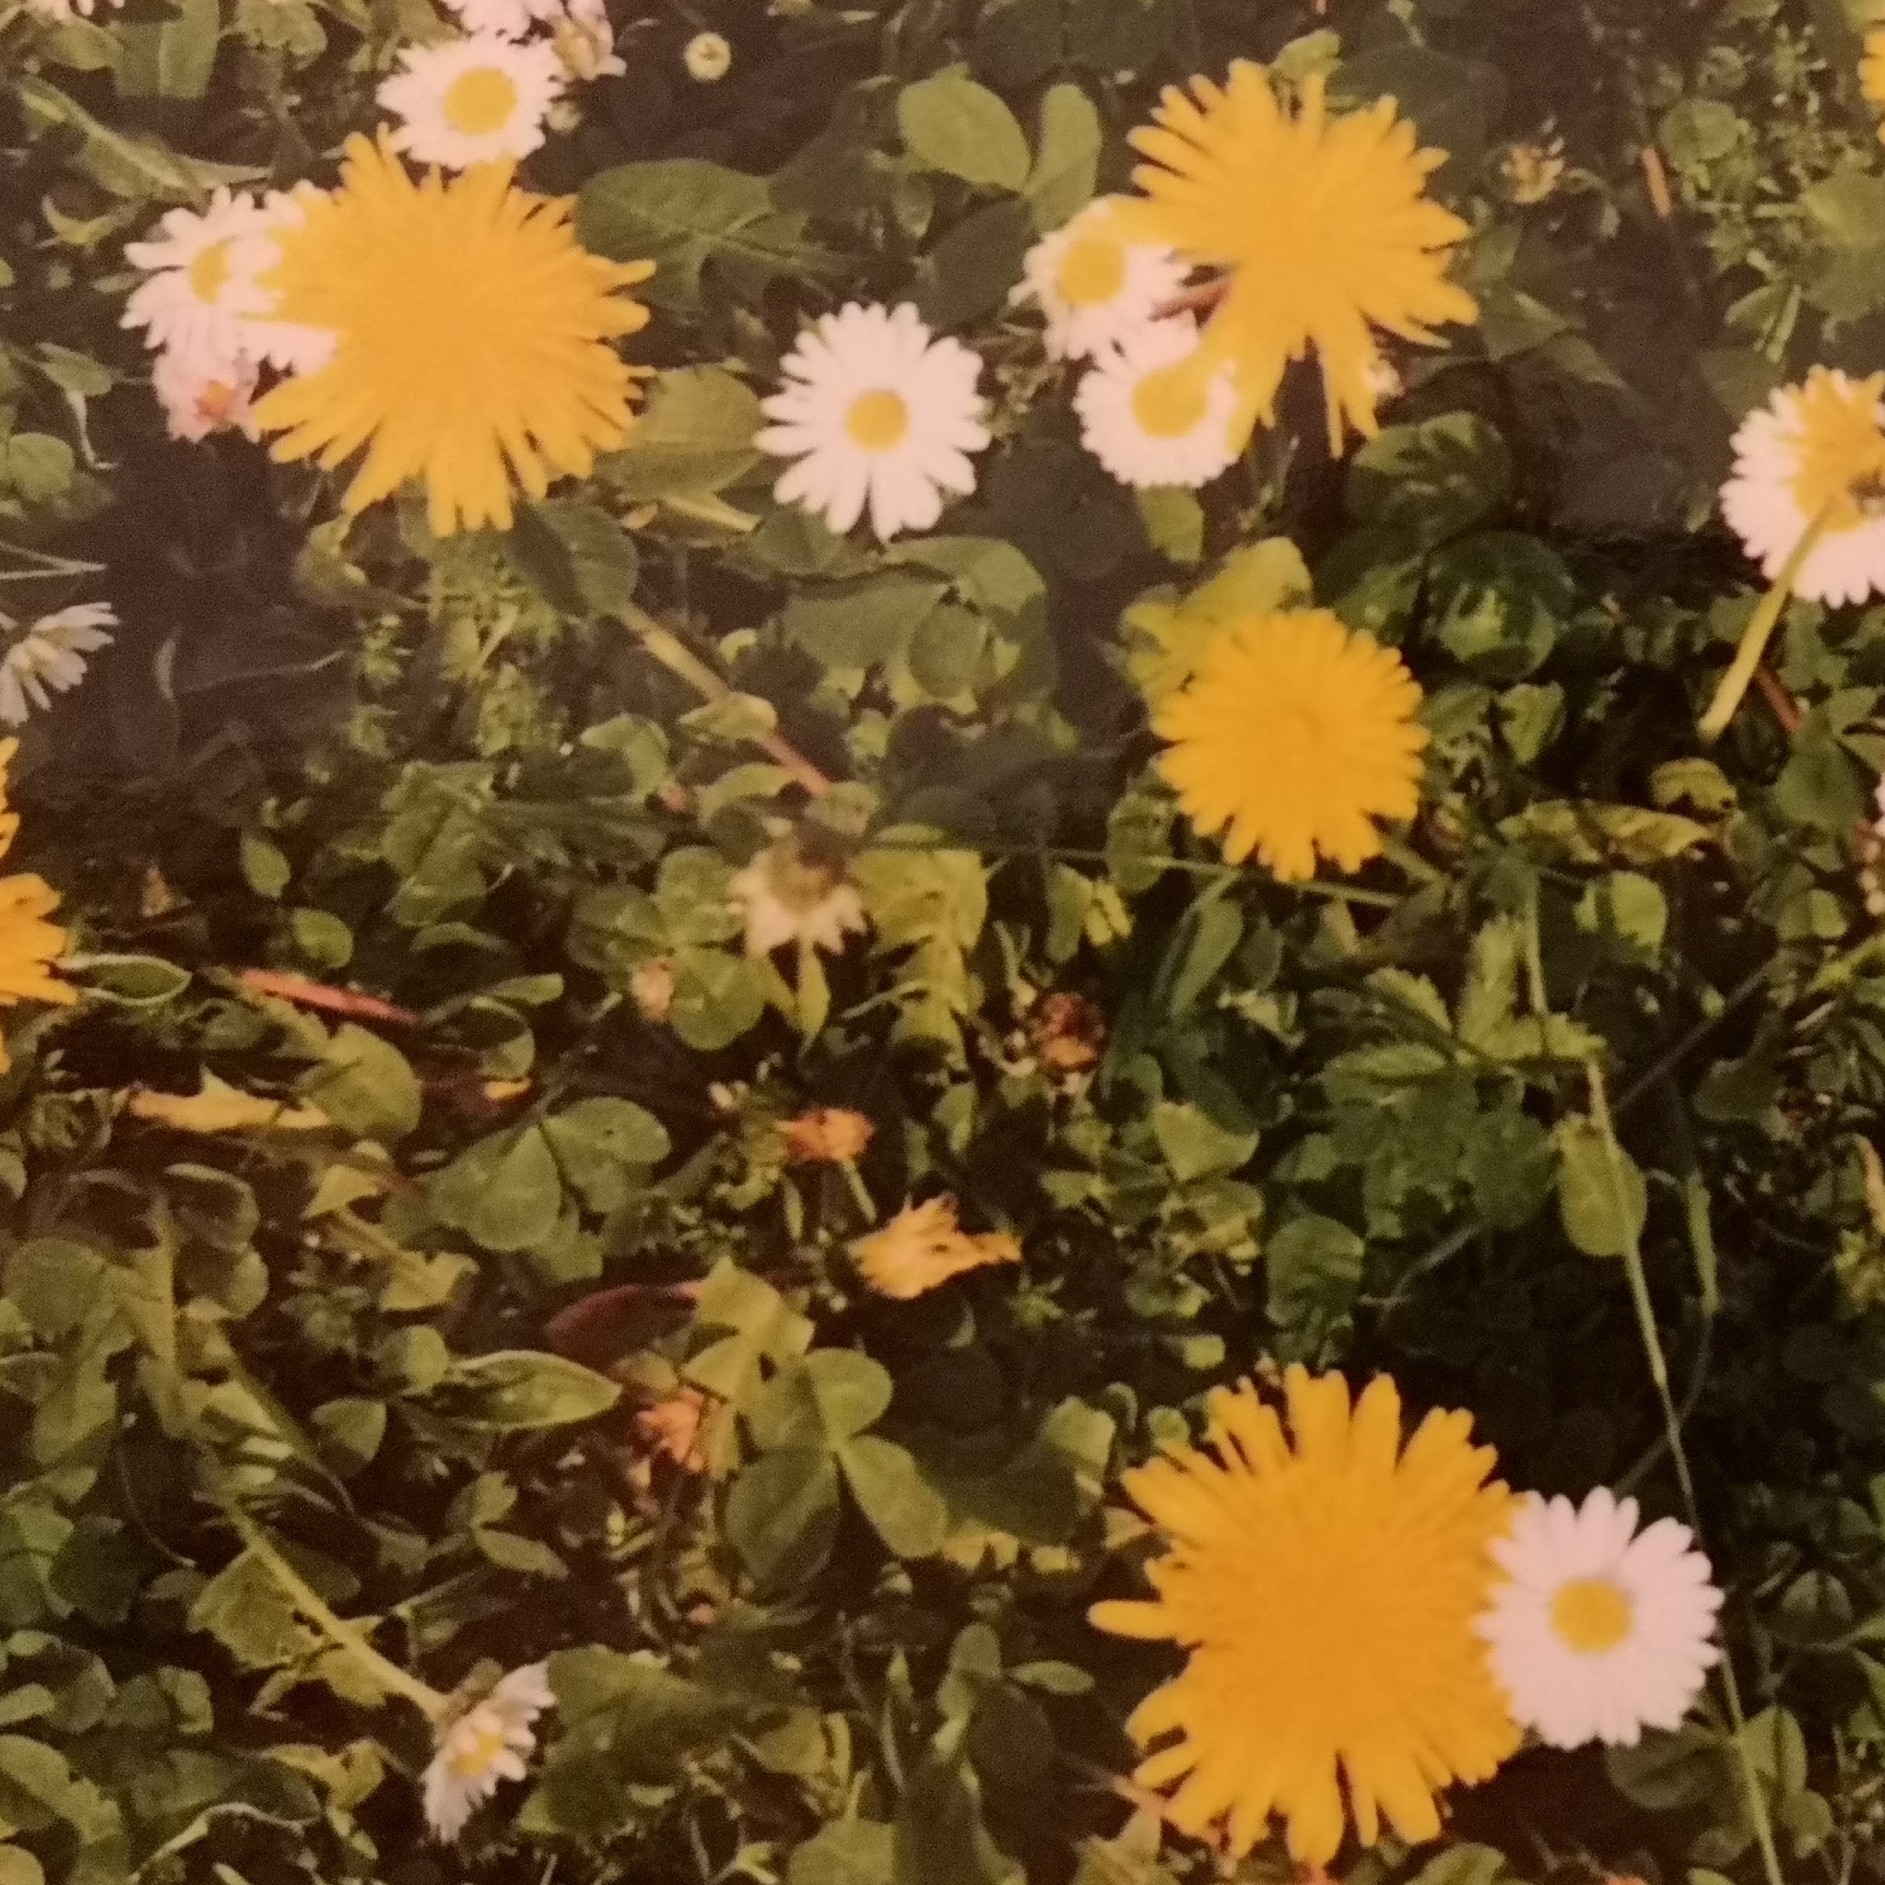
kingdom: Plantae
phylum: Tracheophyta
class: Magnoliopsida
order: Asterales
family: Asteraceae
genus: Taraxacum
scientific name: Taraxacum
